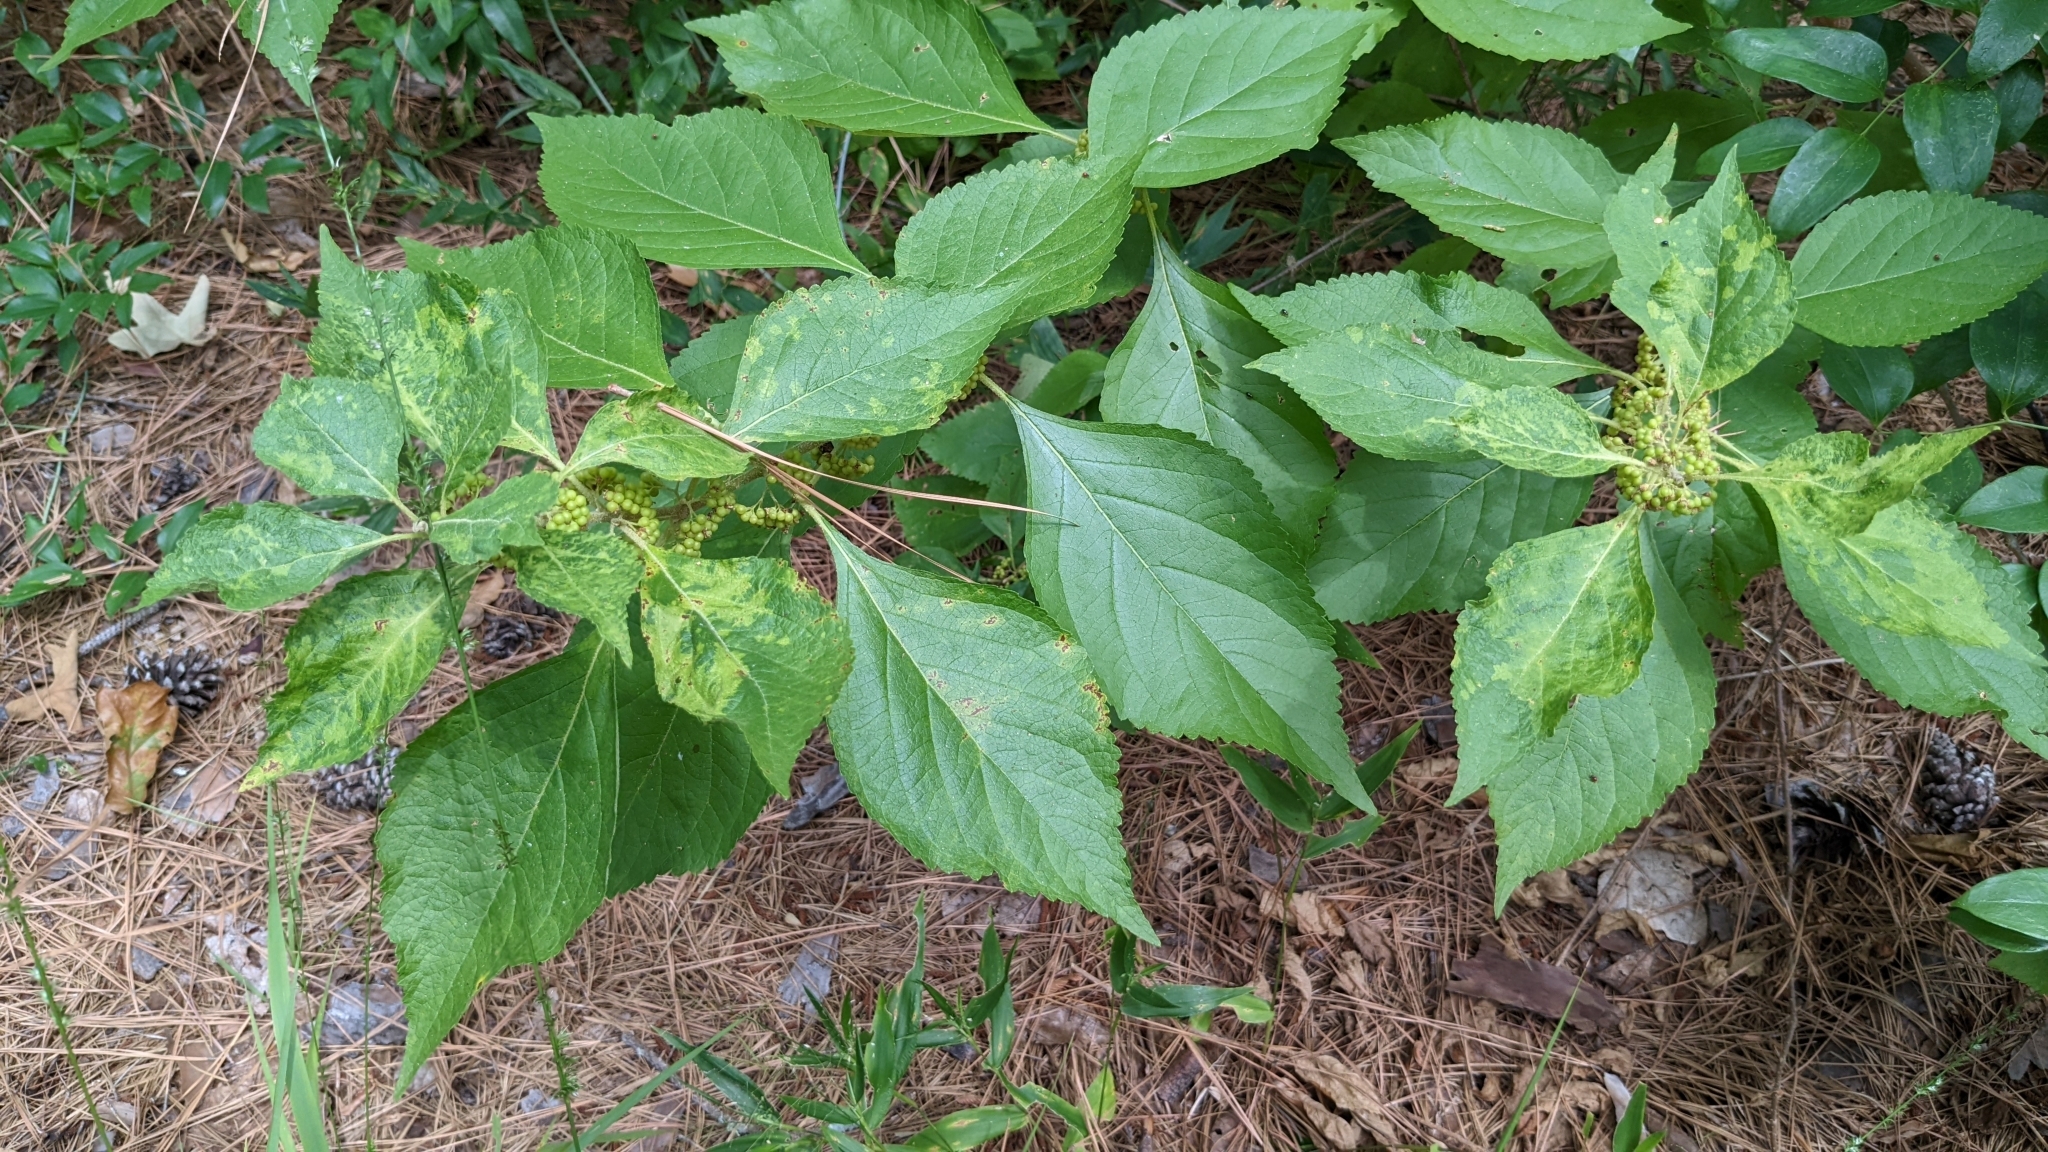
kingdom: Plantae
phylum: Tracheophyta
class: Magnoliopsida
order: Lamiales
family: Lamiaceae
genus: Callicarpa
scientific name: Callicarpa americana
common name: American beautyberry
